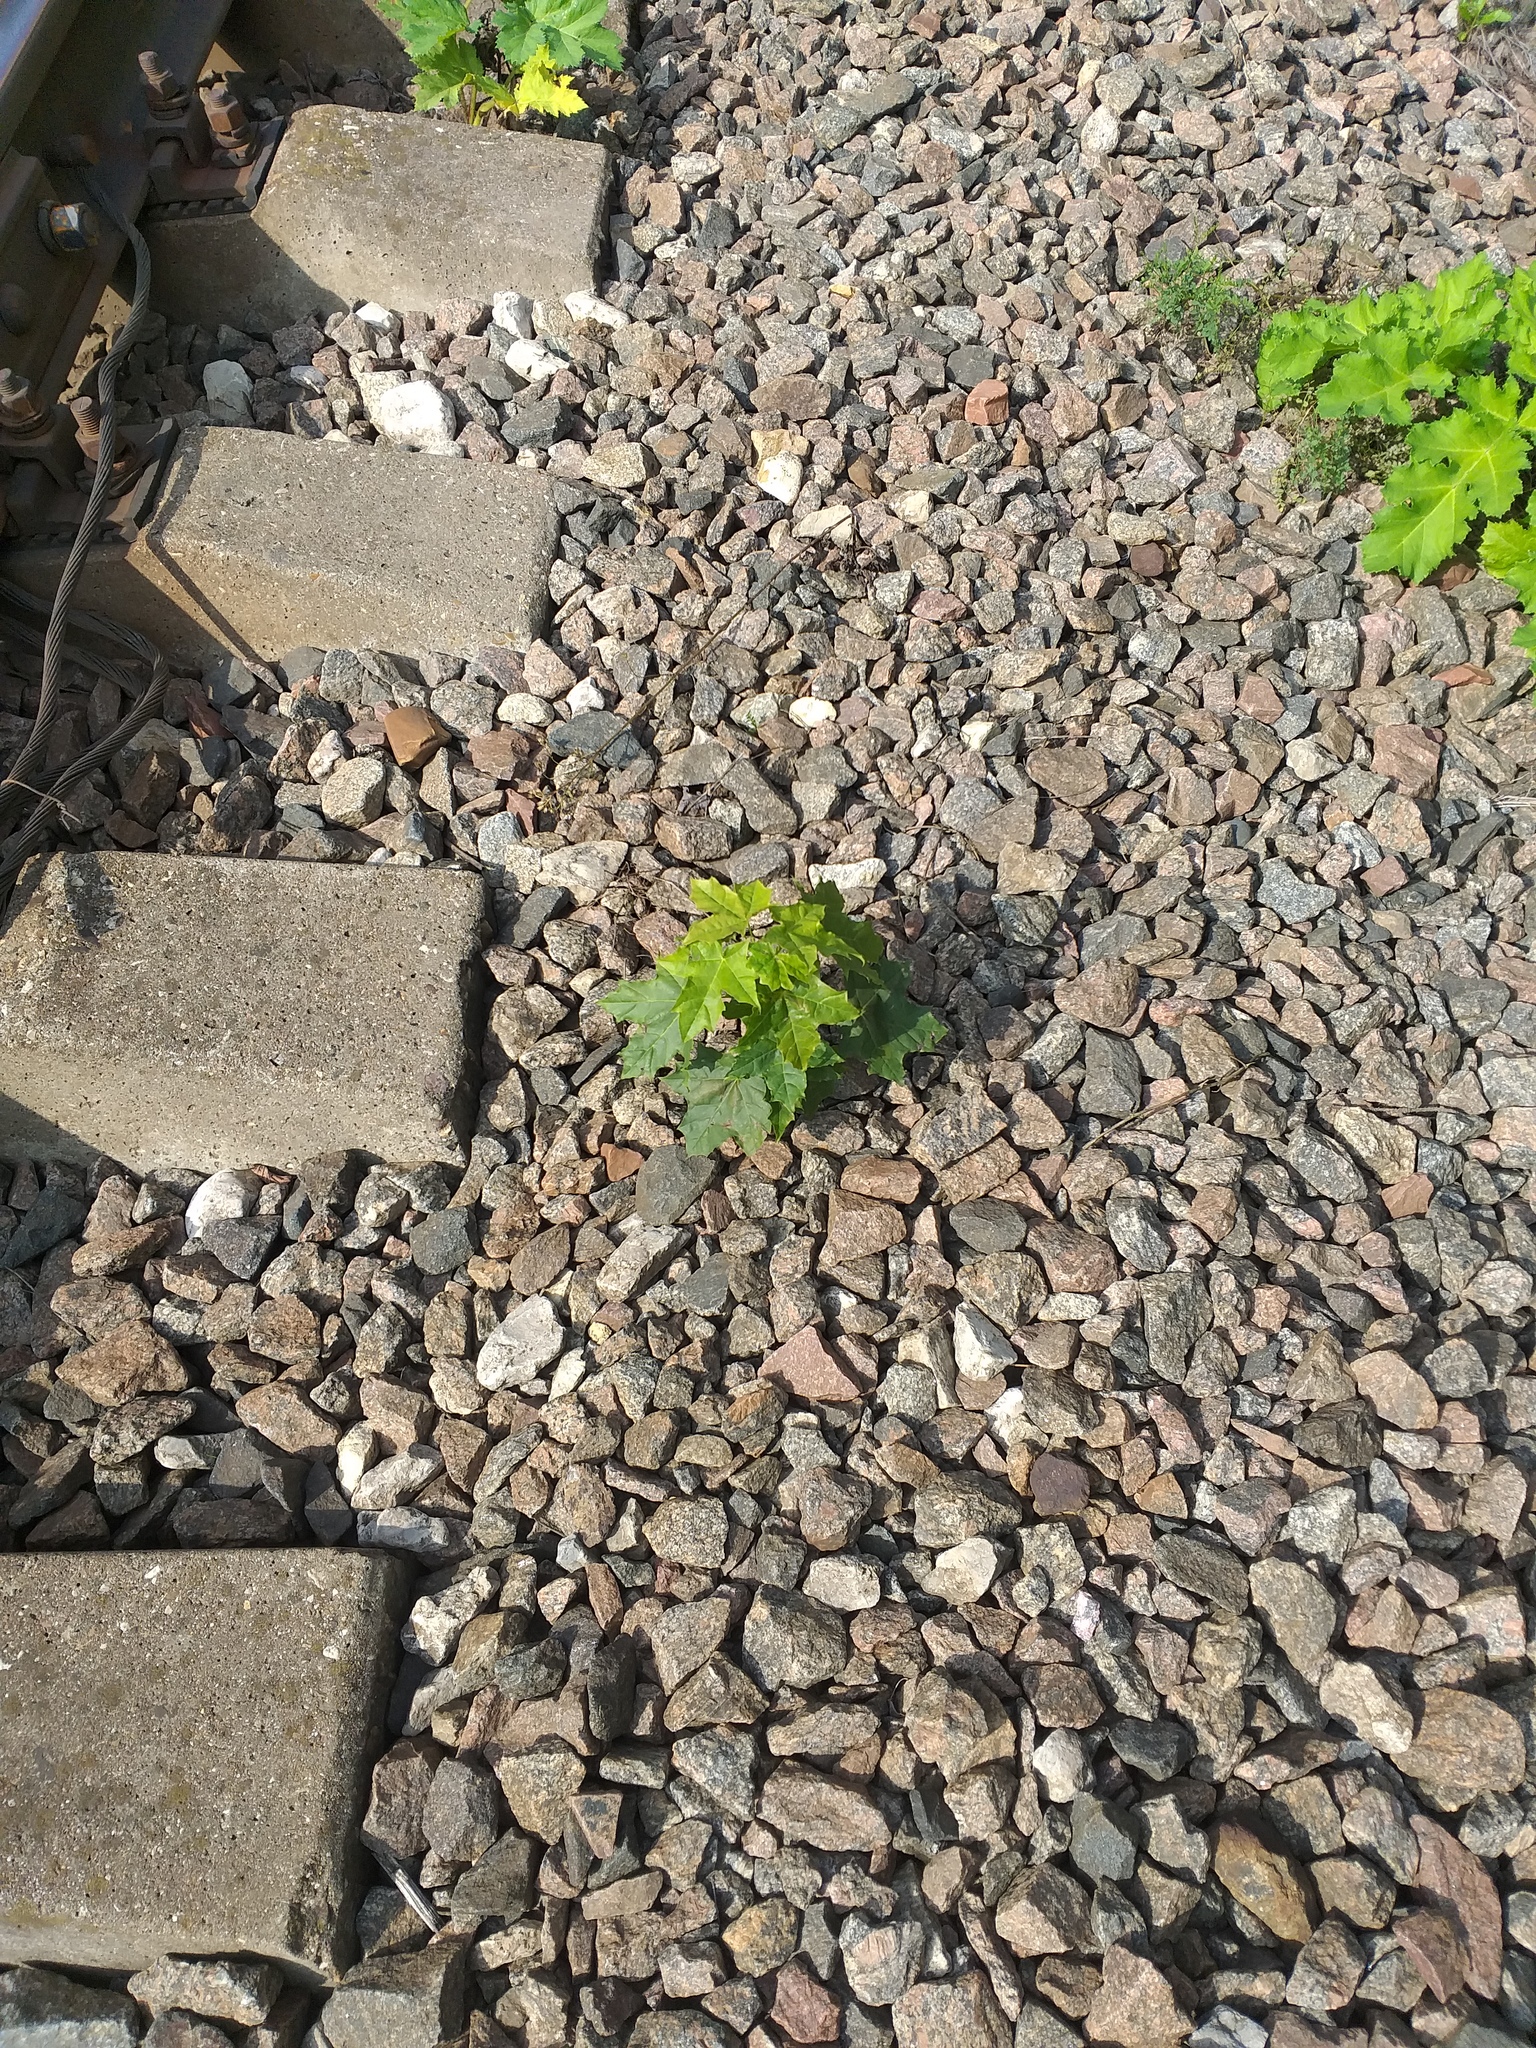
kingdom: Plantae
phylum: Tracheophyta
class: Magnoliopsida
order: Sapindales
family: Sapindaceae
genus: Acer
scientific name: Acer platanoides
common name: Norway maple
